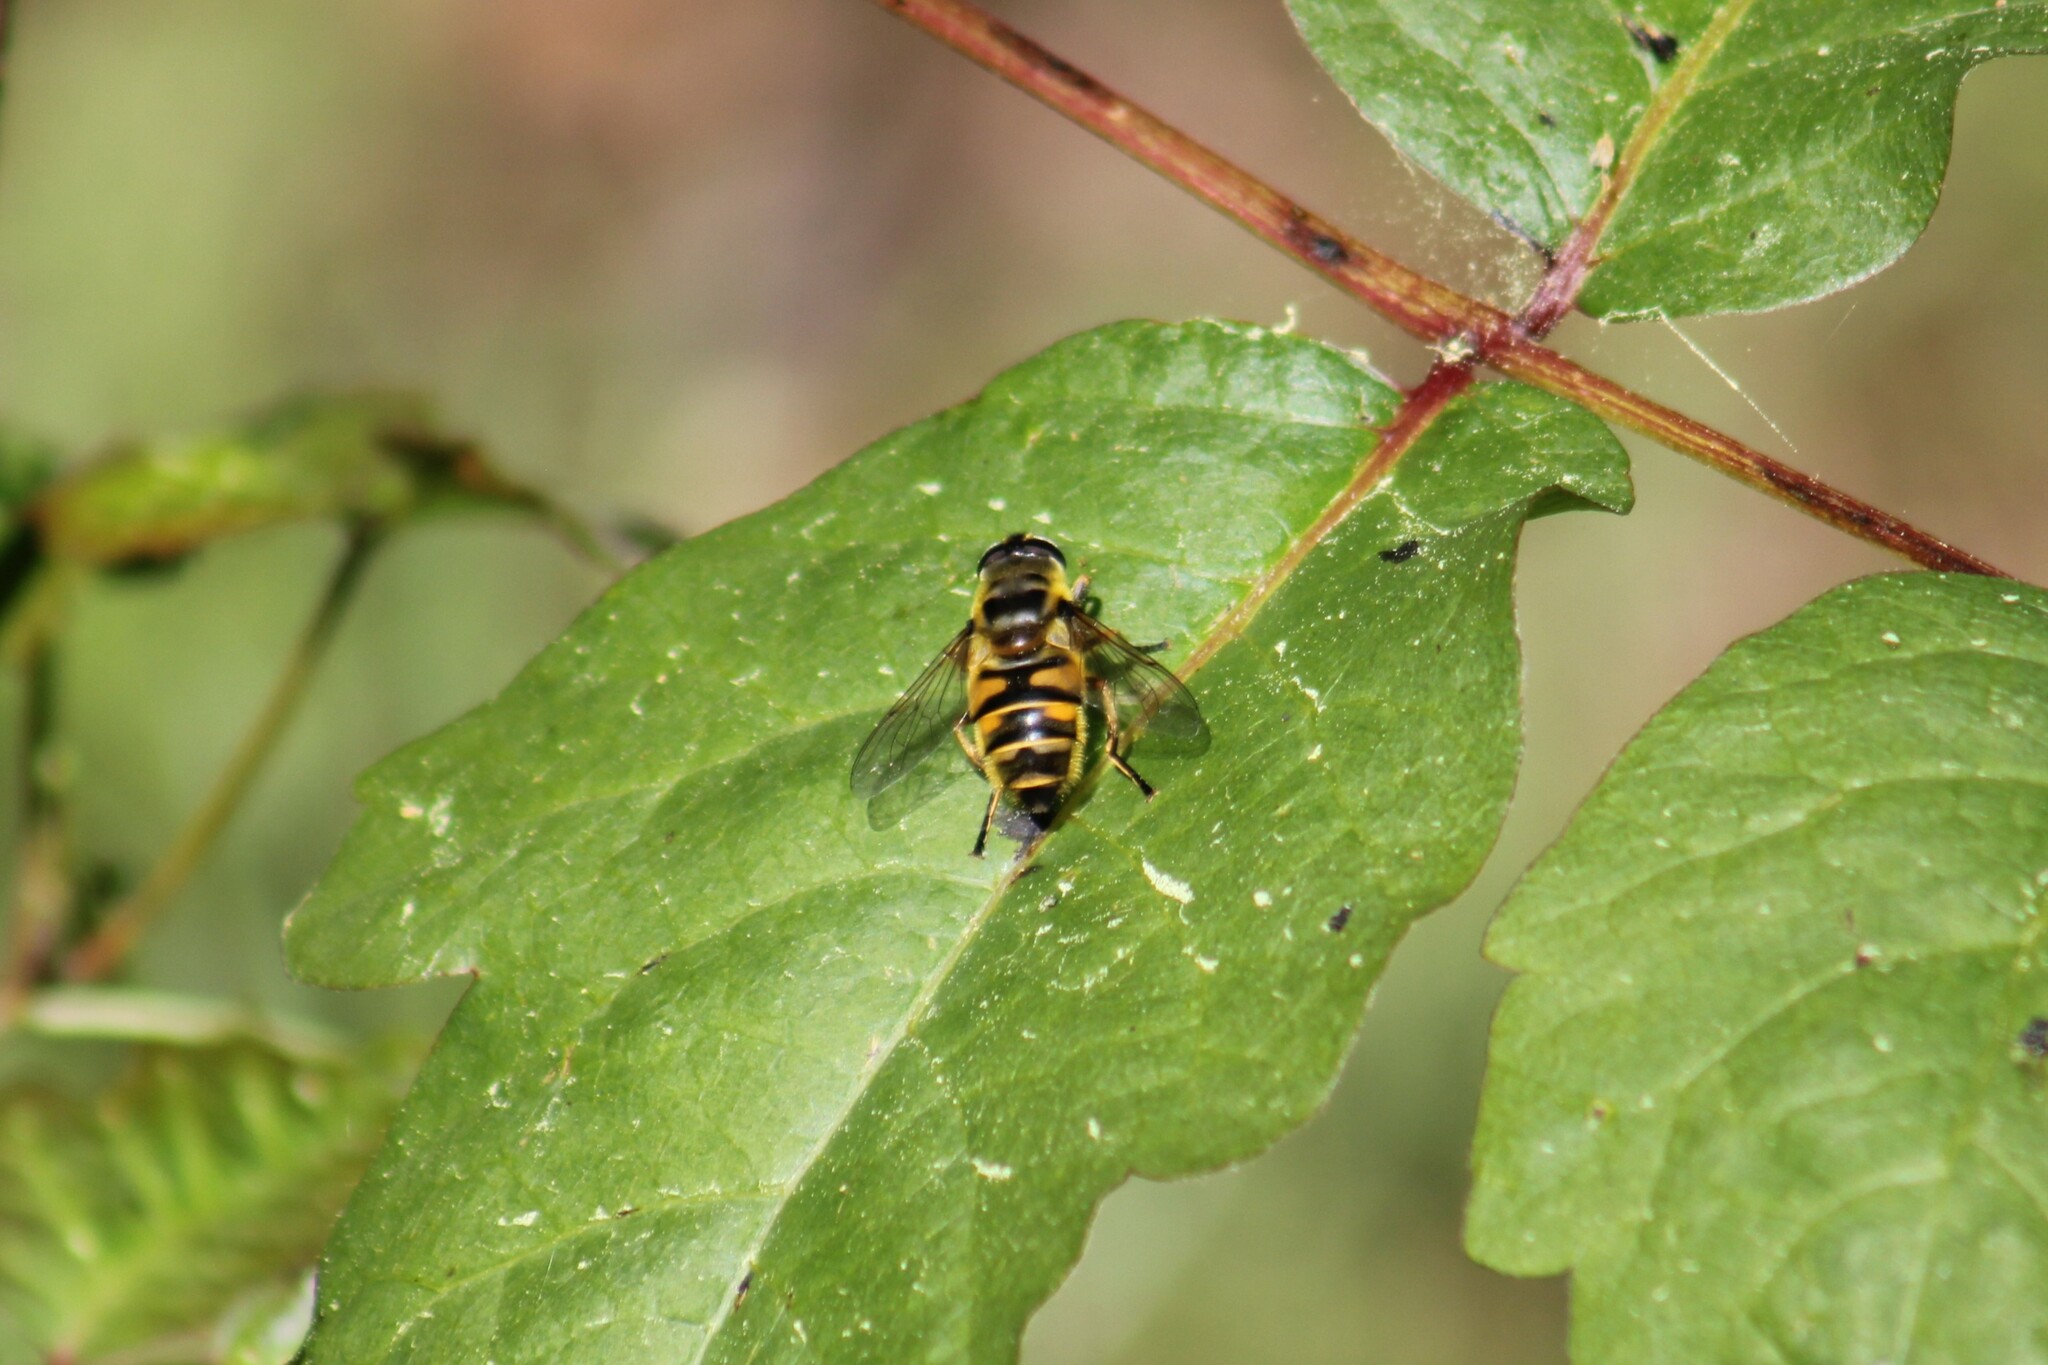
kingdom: Animalia
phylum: Arthropoda
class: Insecta
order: Diptera
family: Syrphidae
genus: Myathropa
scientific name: Myathropa florea
